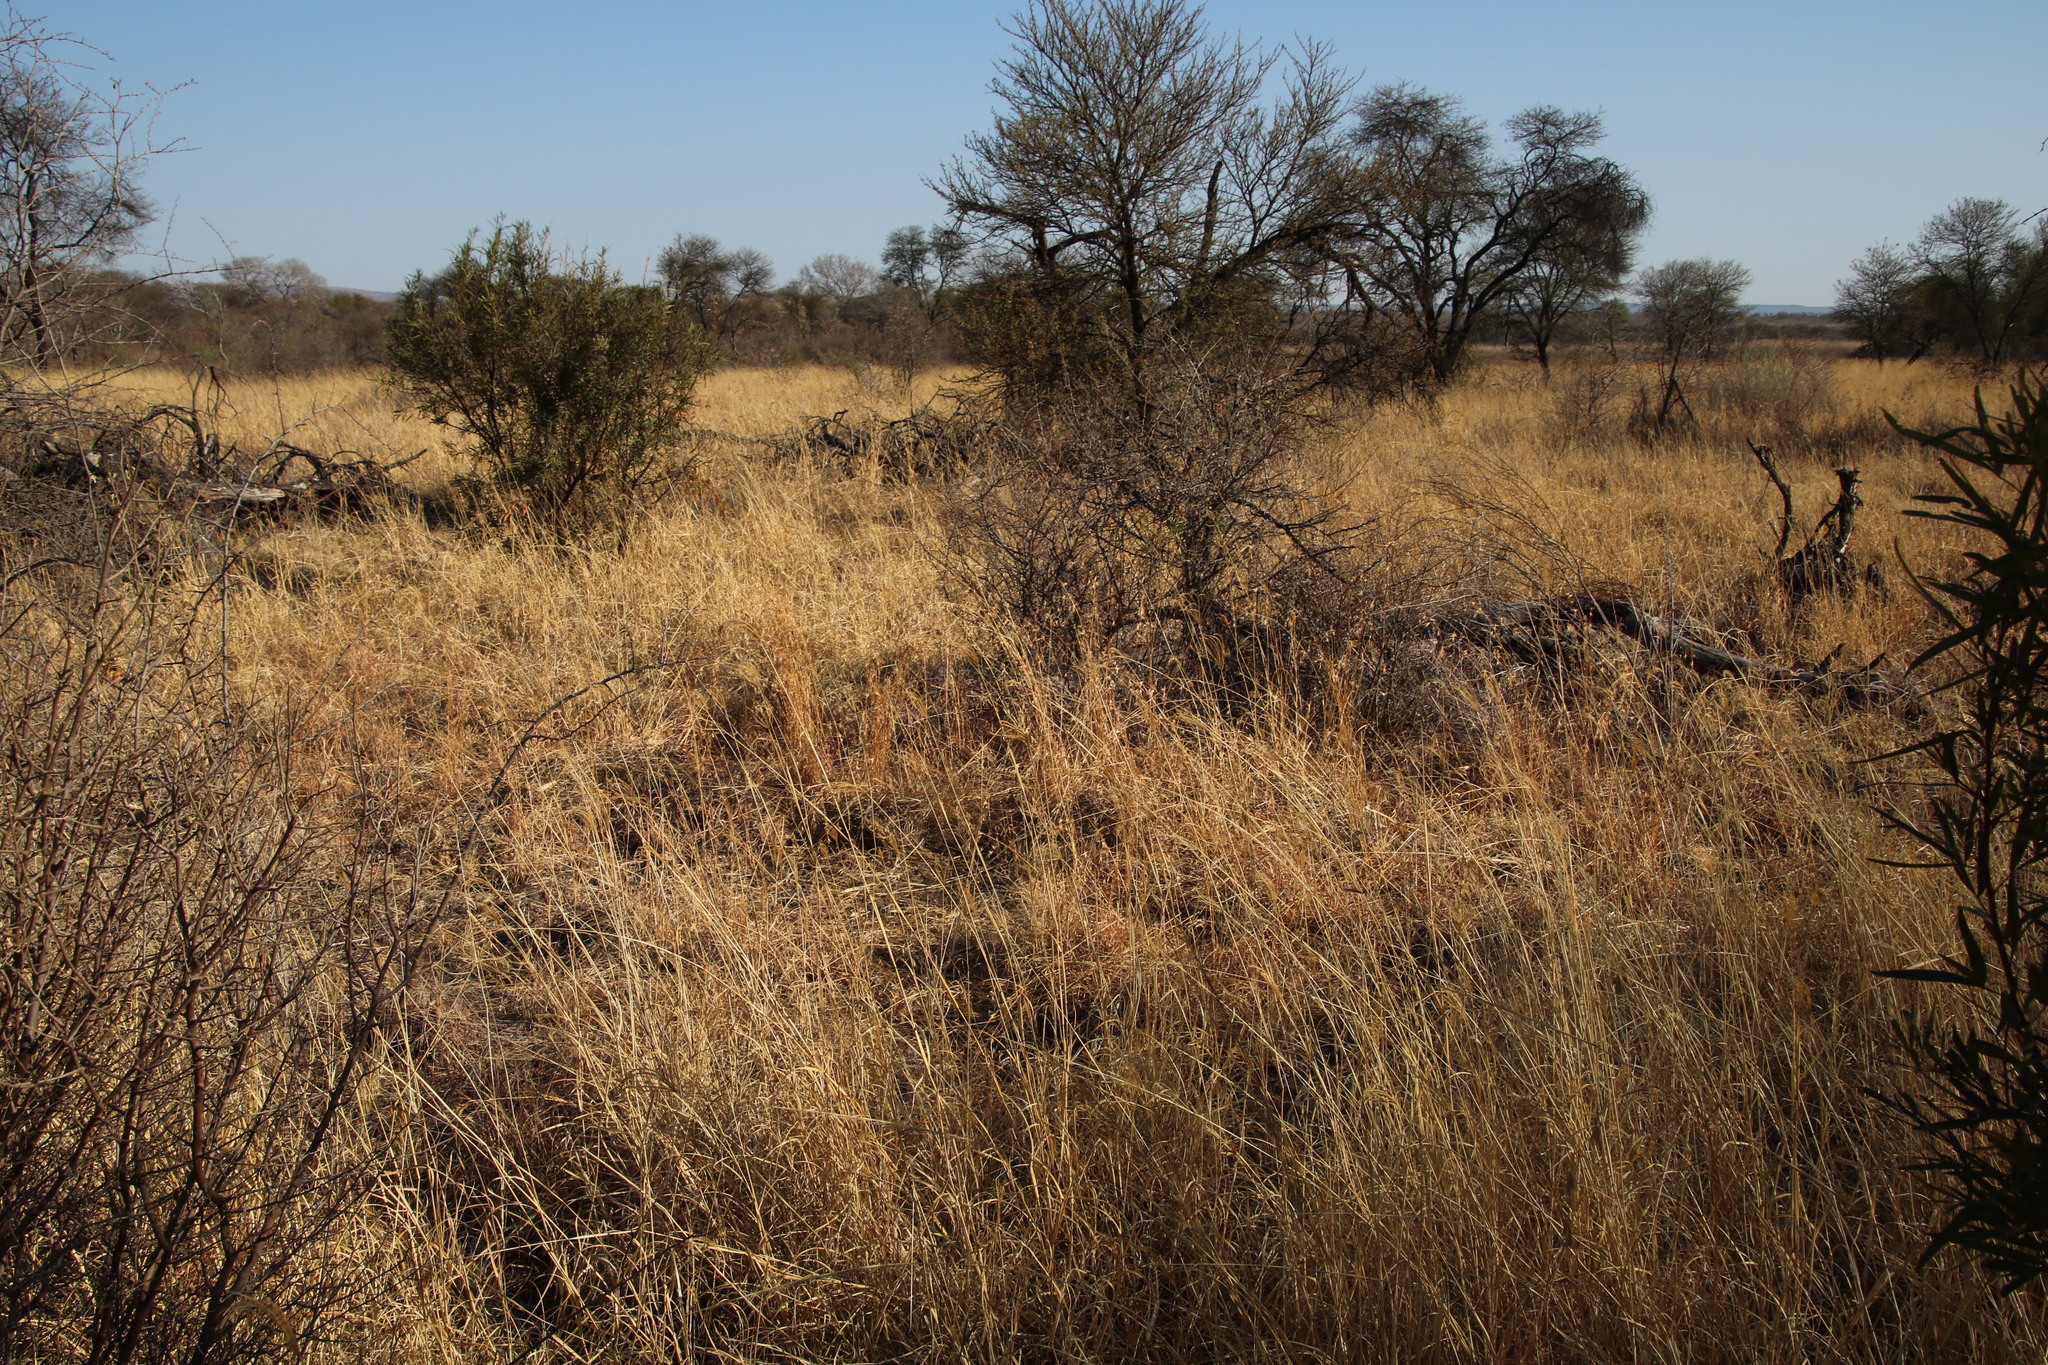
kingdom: Plantae
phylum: Tracheophyta
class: Liliopsida
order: Poales
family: Poaceae
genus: Themeda
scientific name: Themeda triandra
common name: Kangaroo grass
